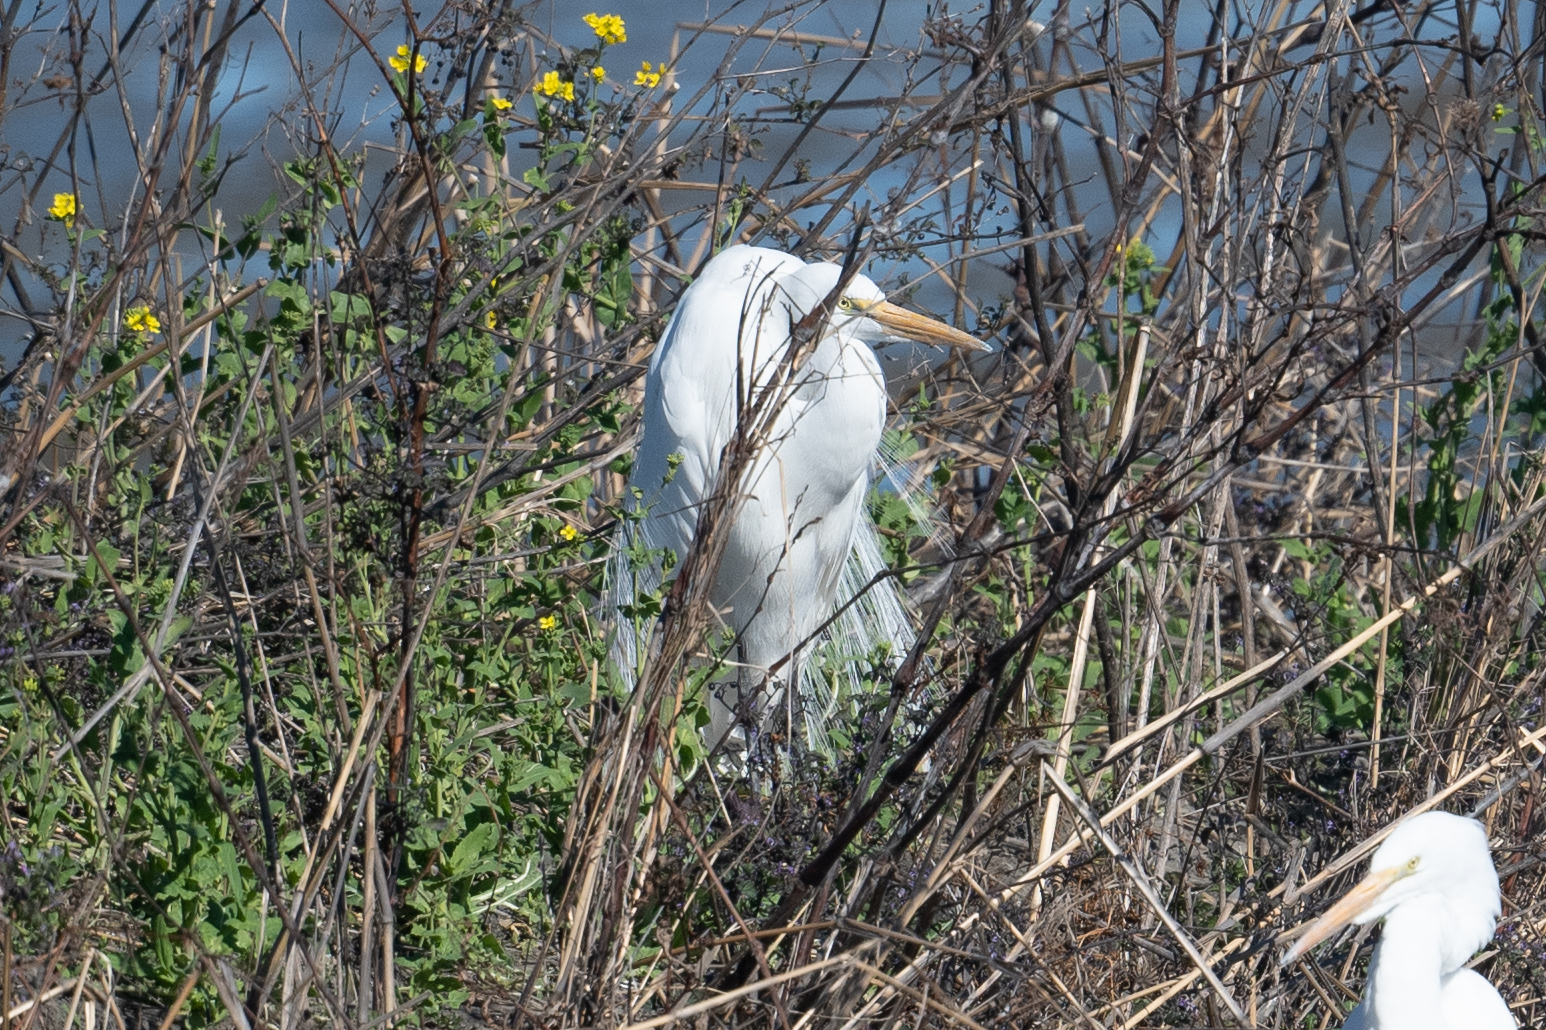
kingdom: Animalia
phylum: Chordata
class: Aves
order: Pelecaniformes
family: Ardeidae
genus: Ardea
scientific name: Ardea alba
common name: Great egret
